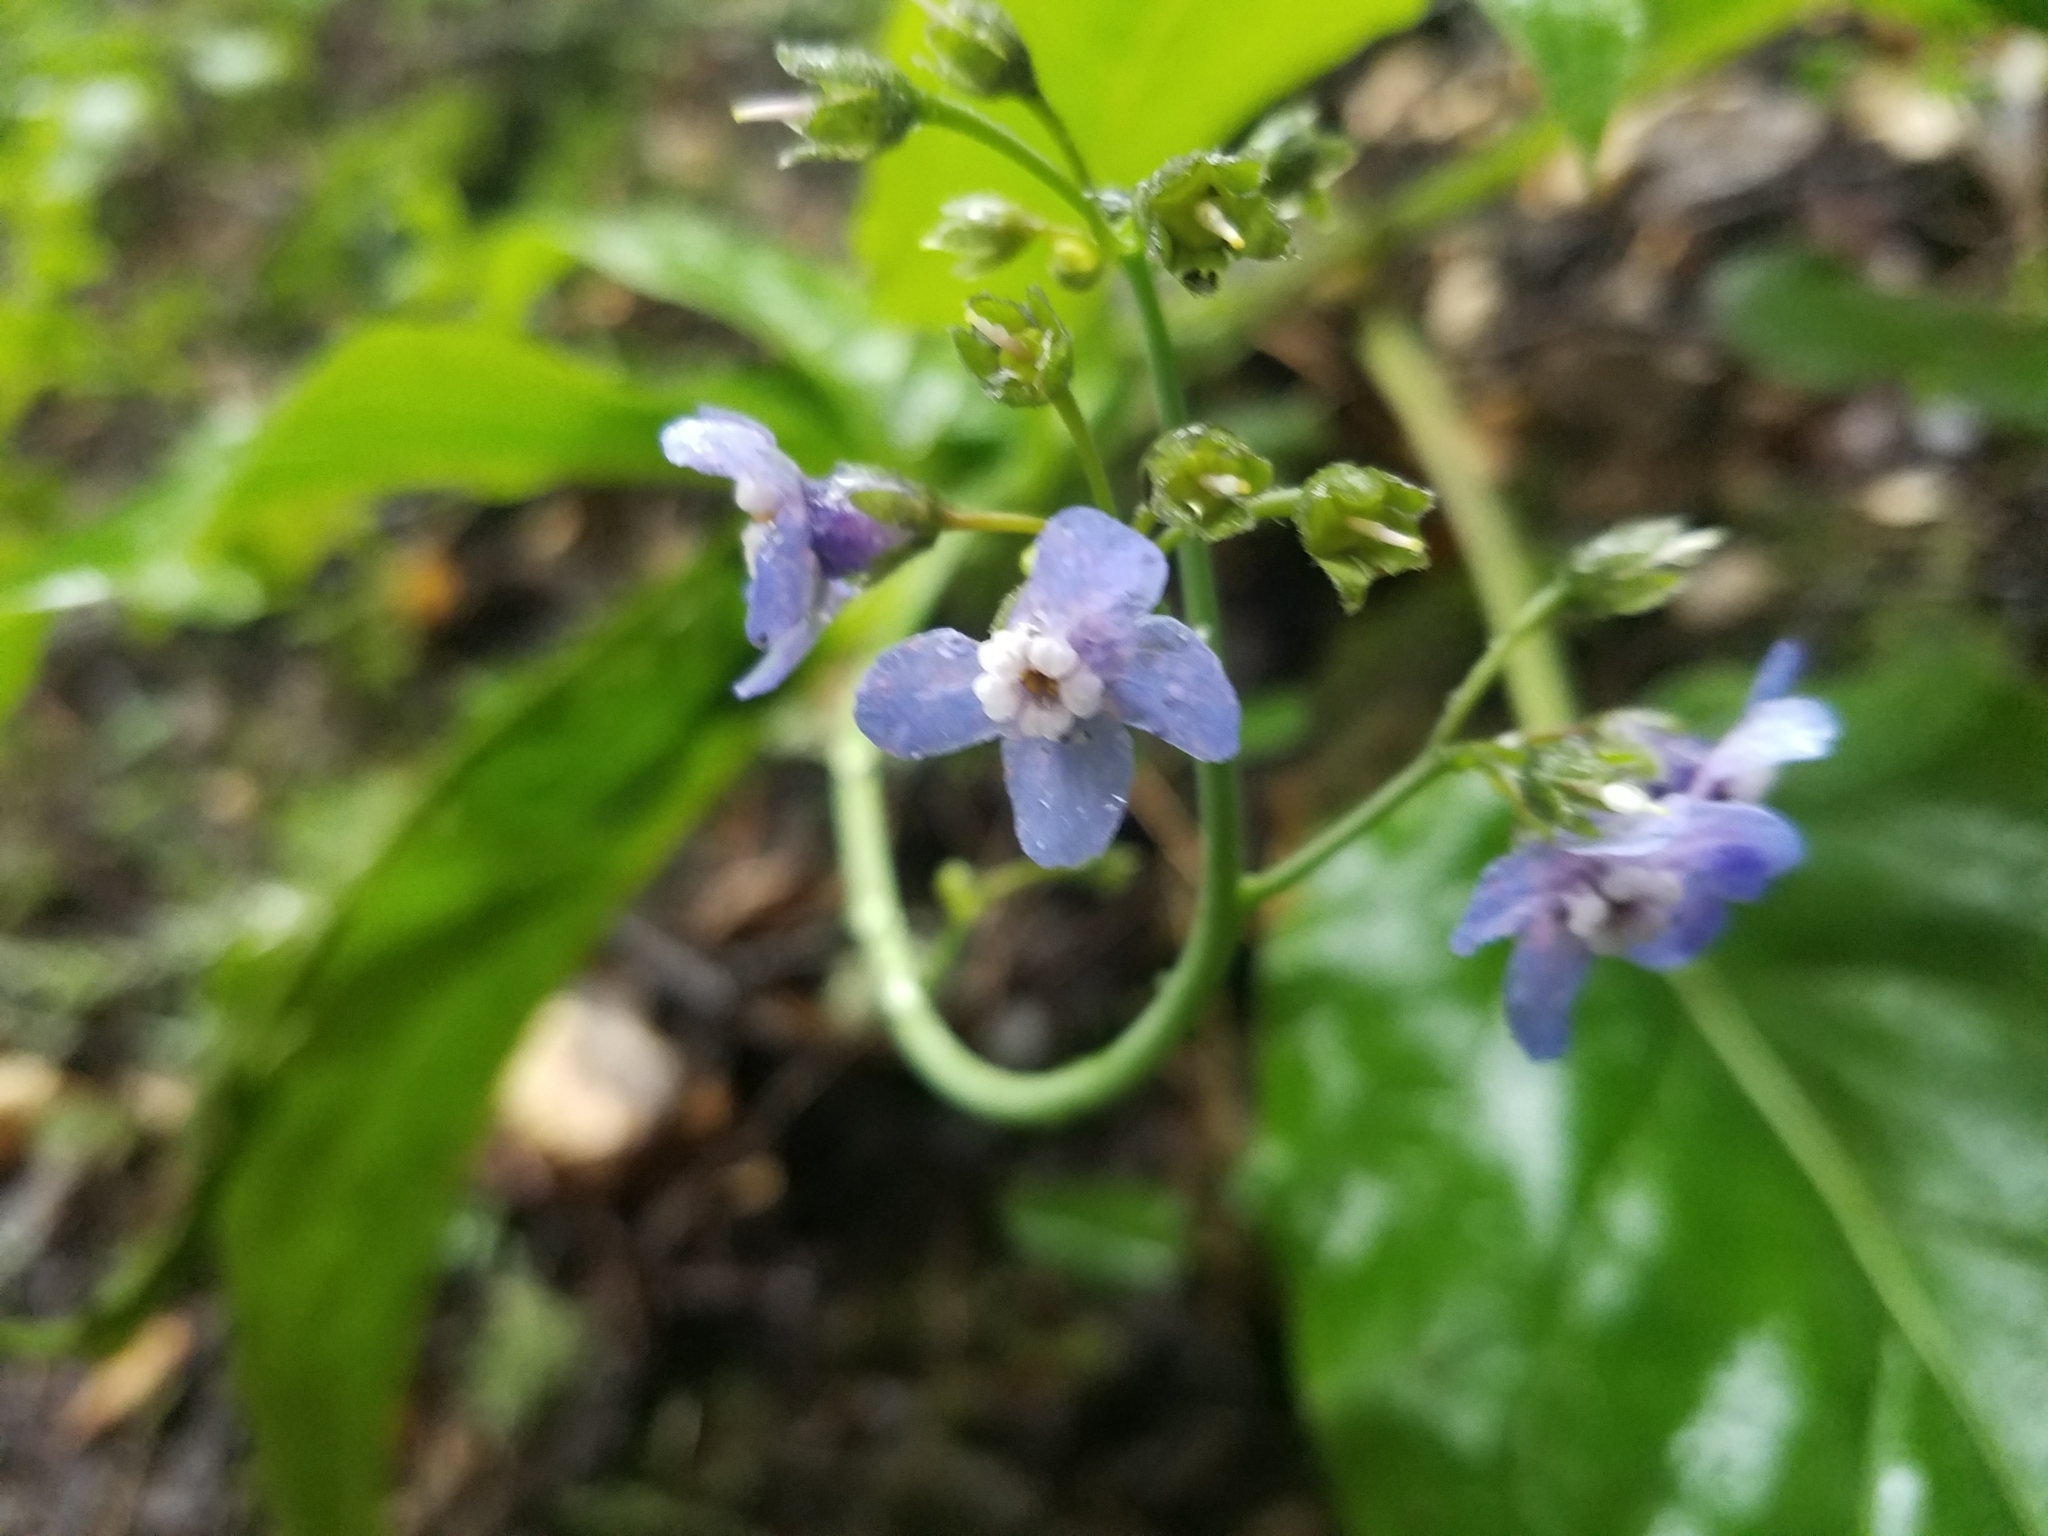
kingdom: Plantae
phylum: Tracheophyta
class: Magnoliopsida
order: Boraginales
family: Boraginaceae
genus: Adelinia
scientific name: Adelinia grande
